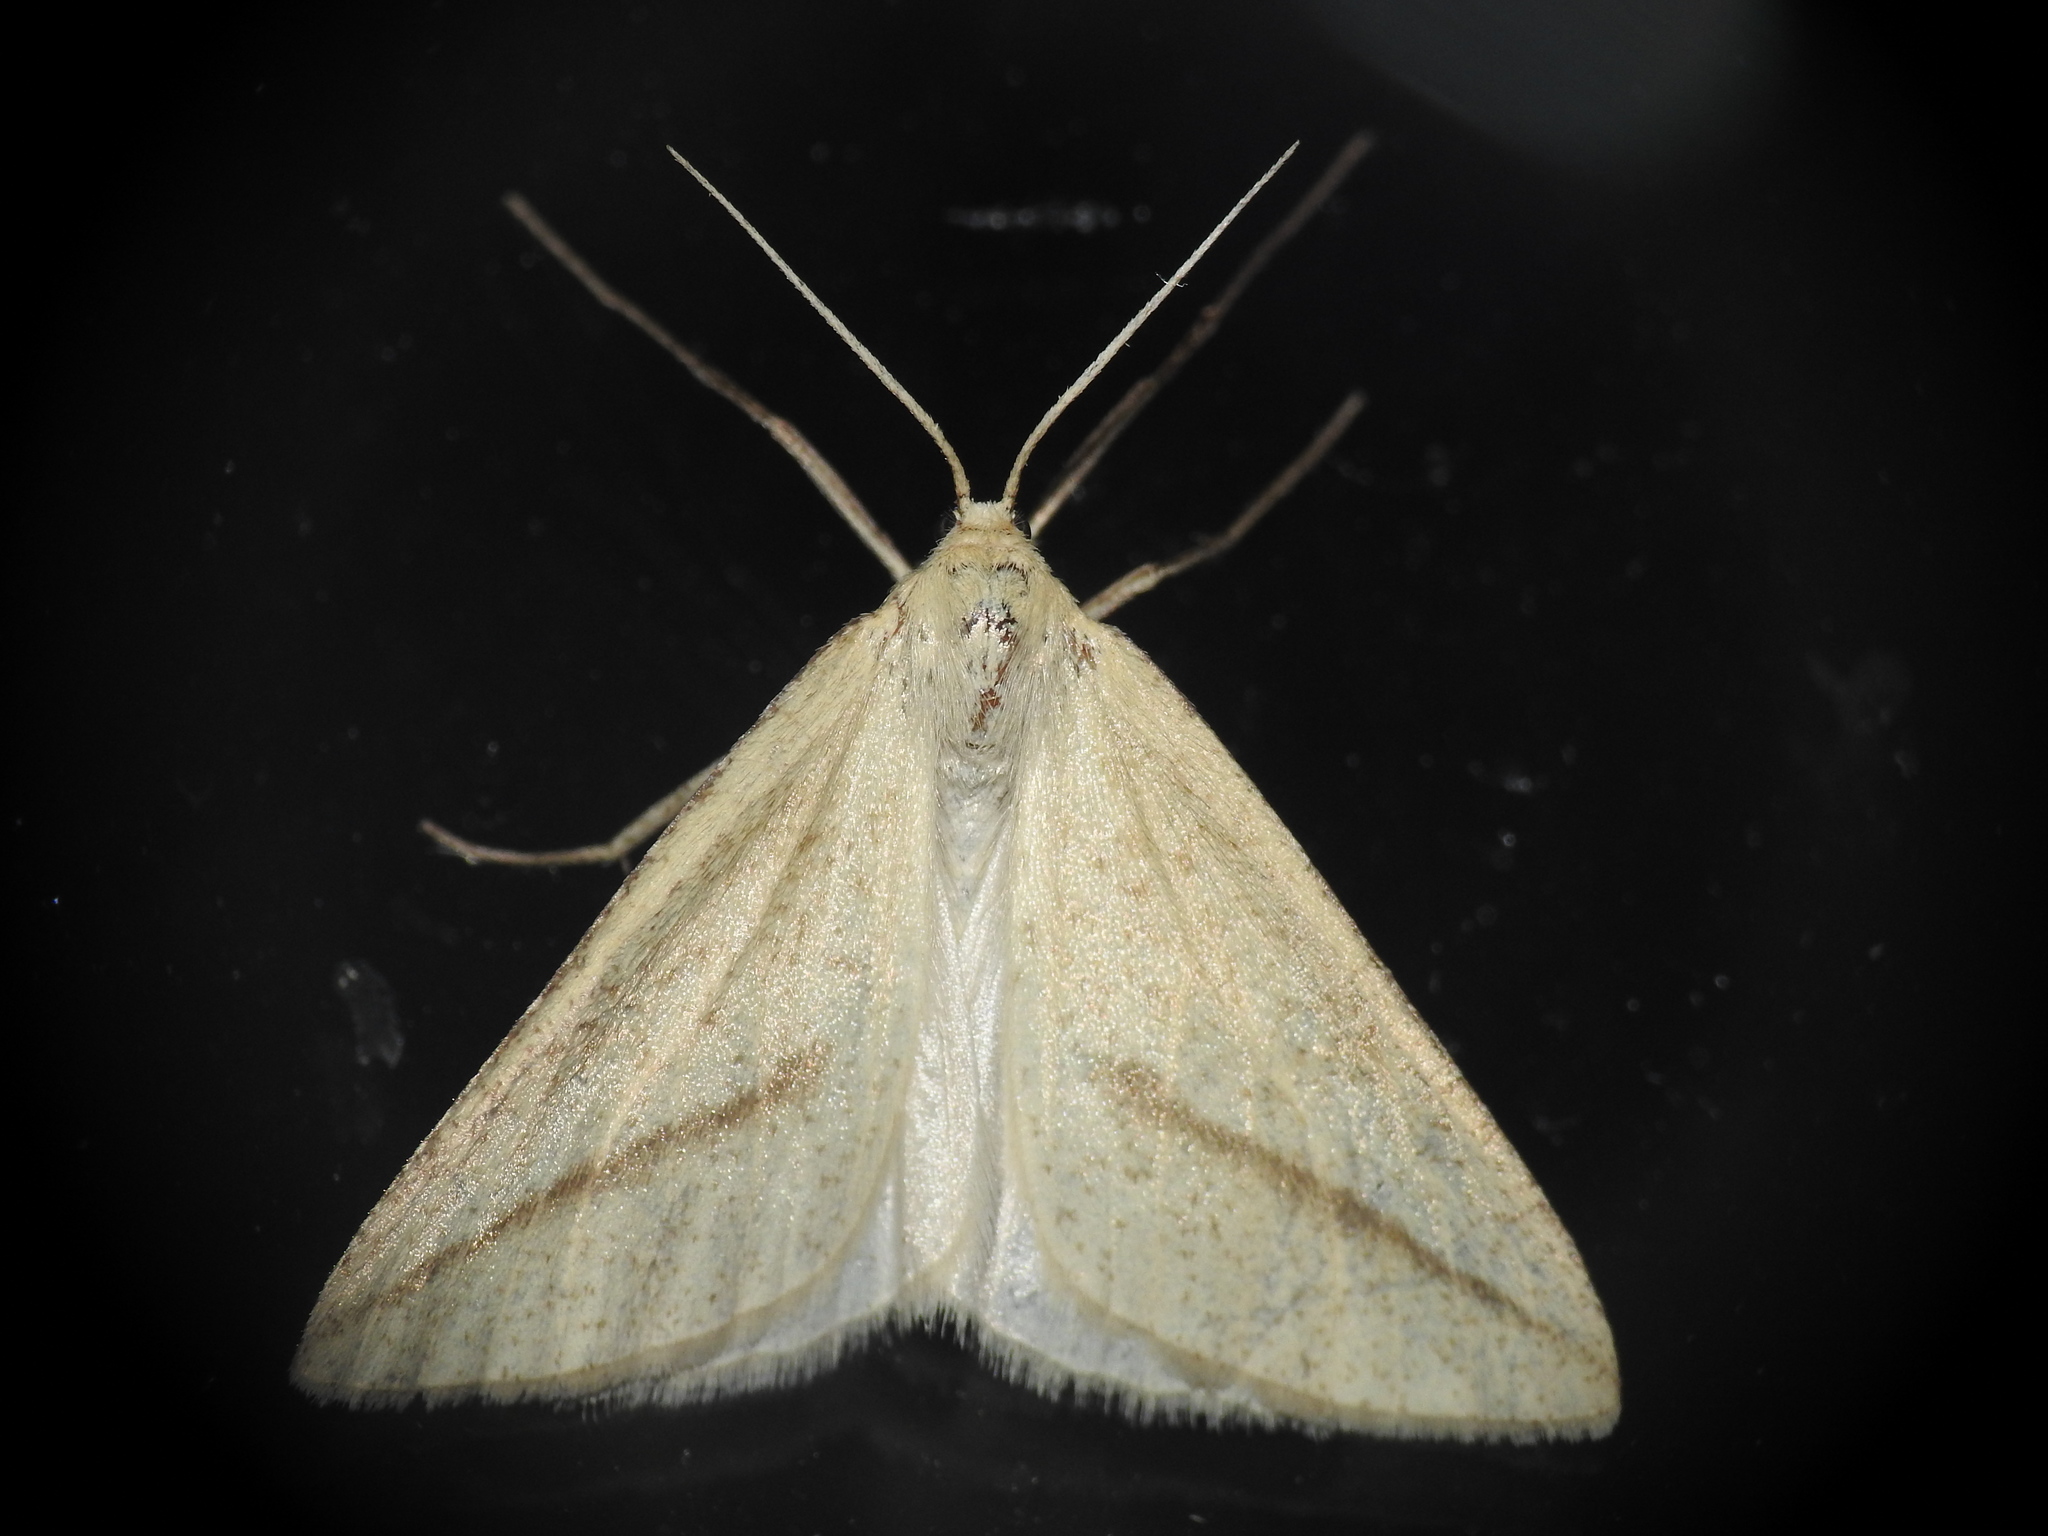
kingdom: Animalia
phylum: Arthropoda
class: Insecta
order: Lepidoptera
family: Geometridae
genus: Aspitates
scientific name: Aspitates gilvaria
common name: Straw belle
